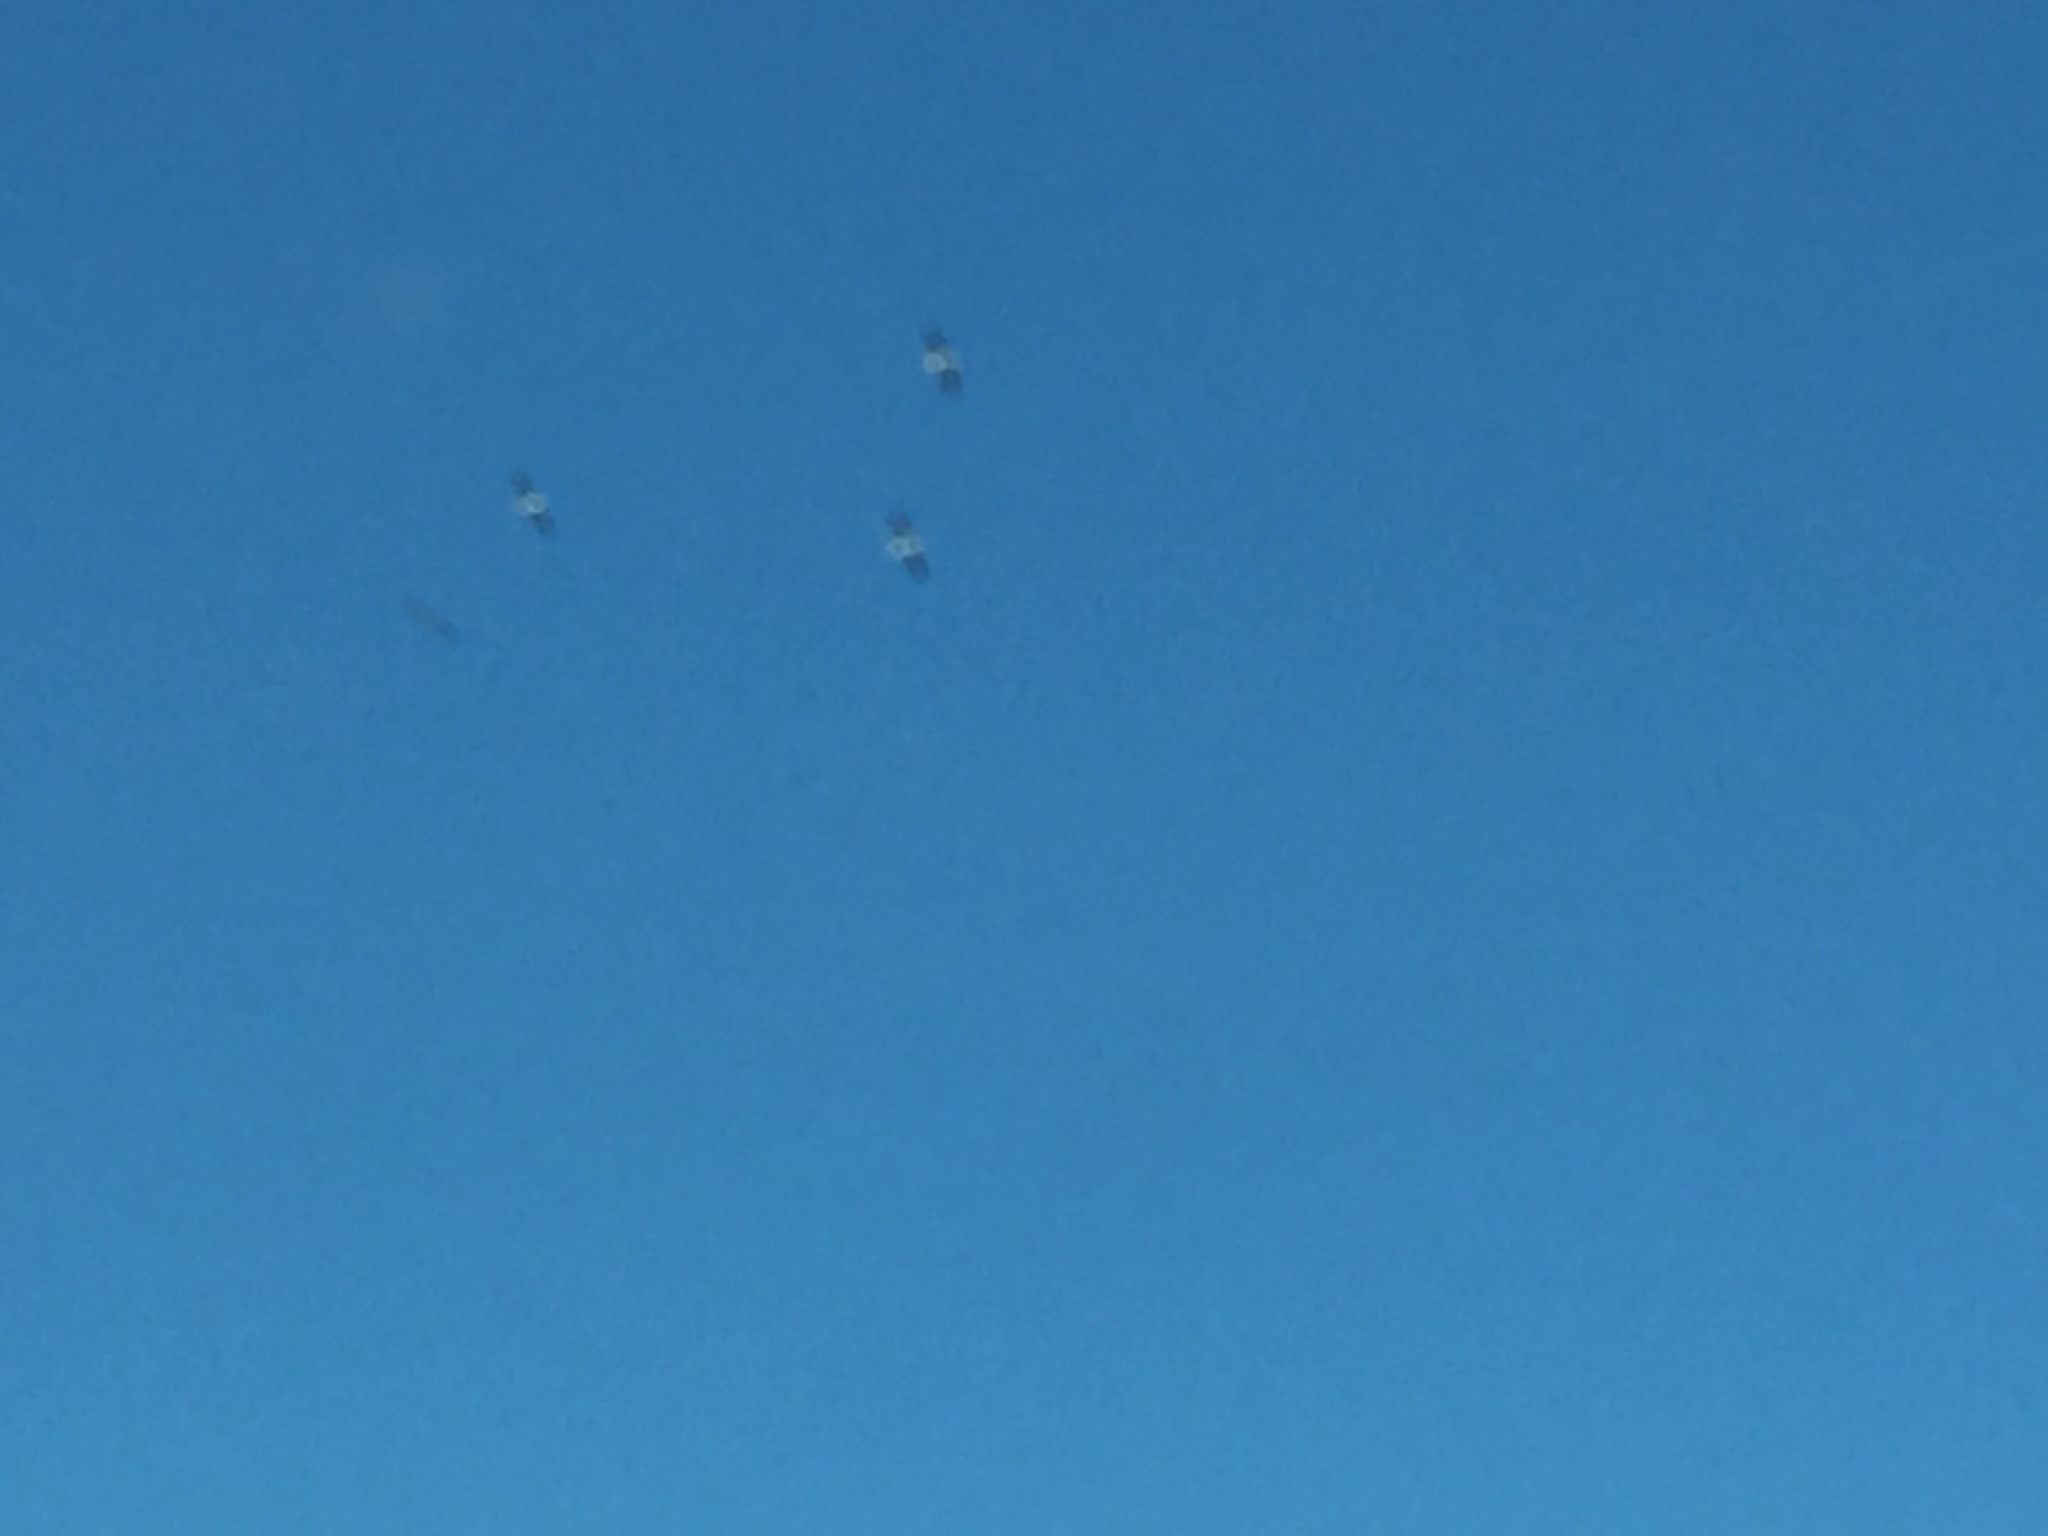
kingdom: Animalia
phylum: Chordata
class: Aves
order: Pelecaniformes
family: Pelecanidae
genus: Pelecanus
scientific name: Pelecanus erythrorhynchos
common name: American white pelican
